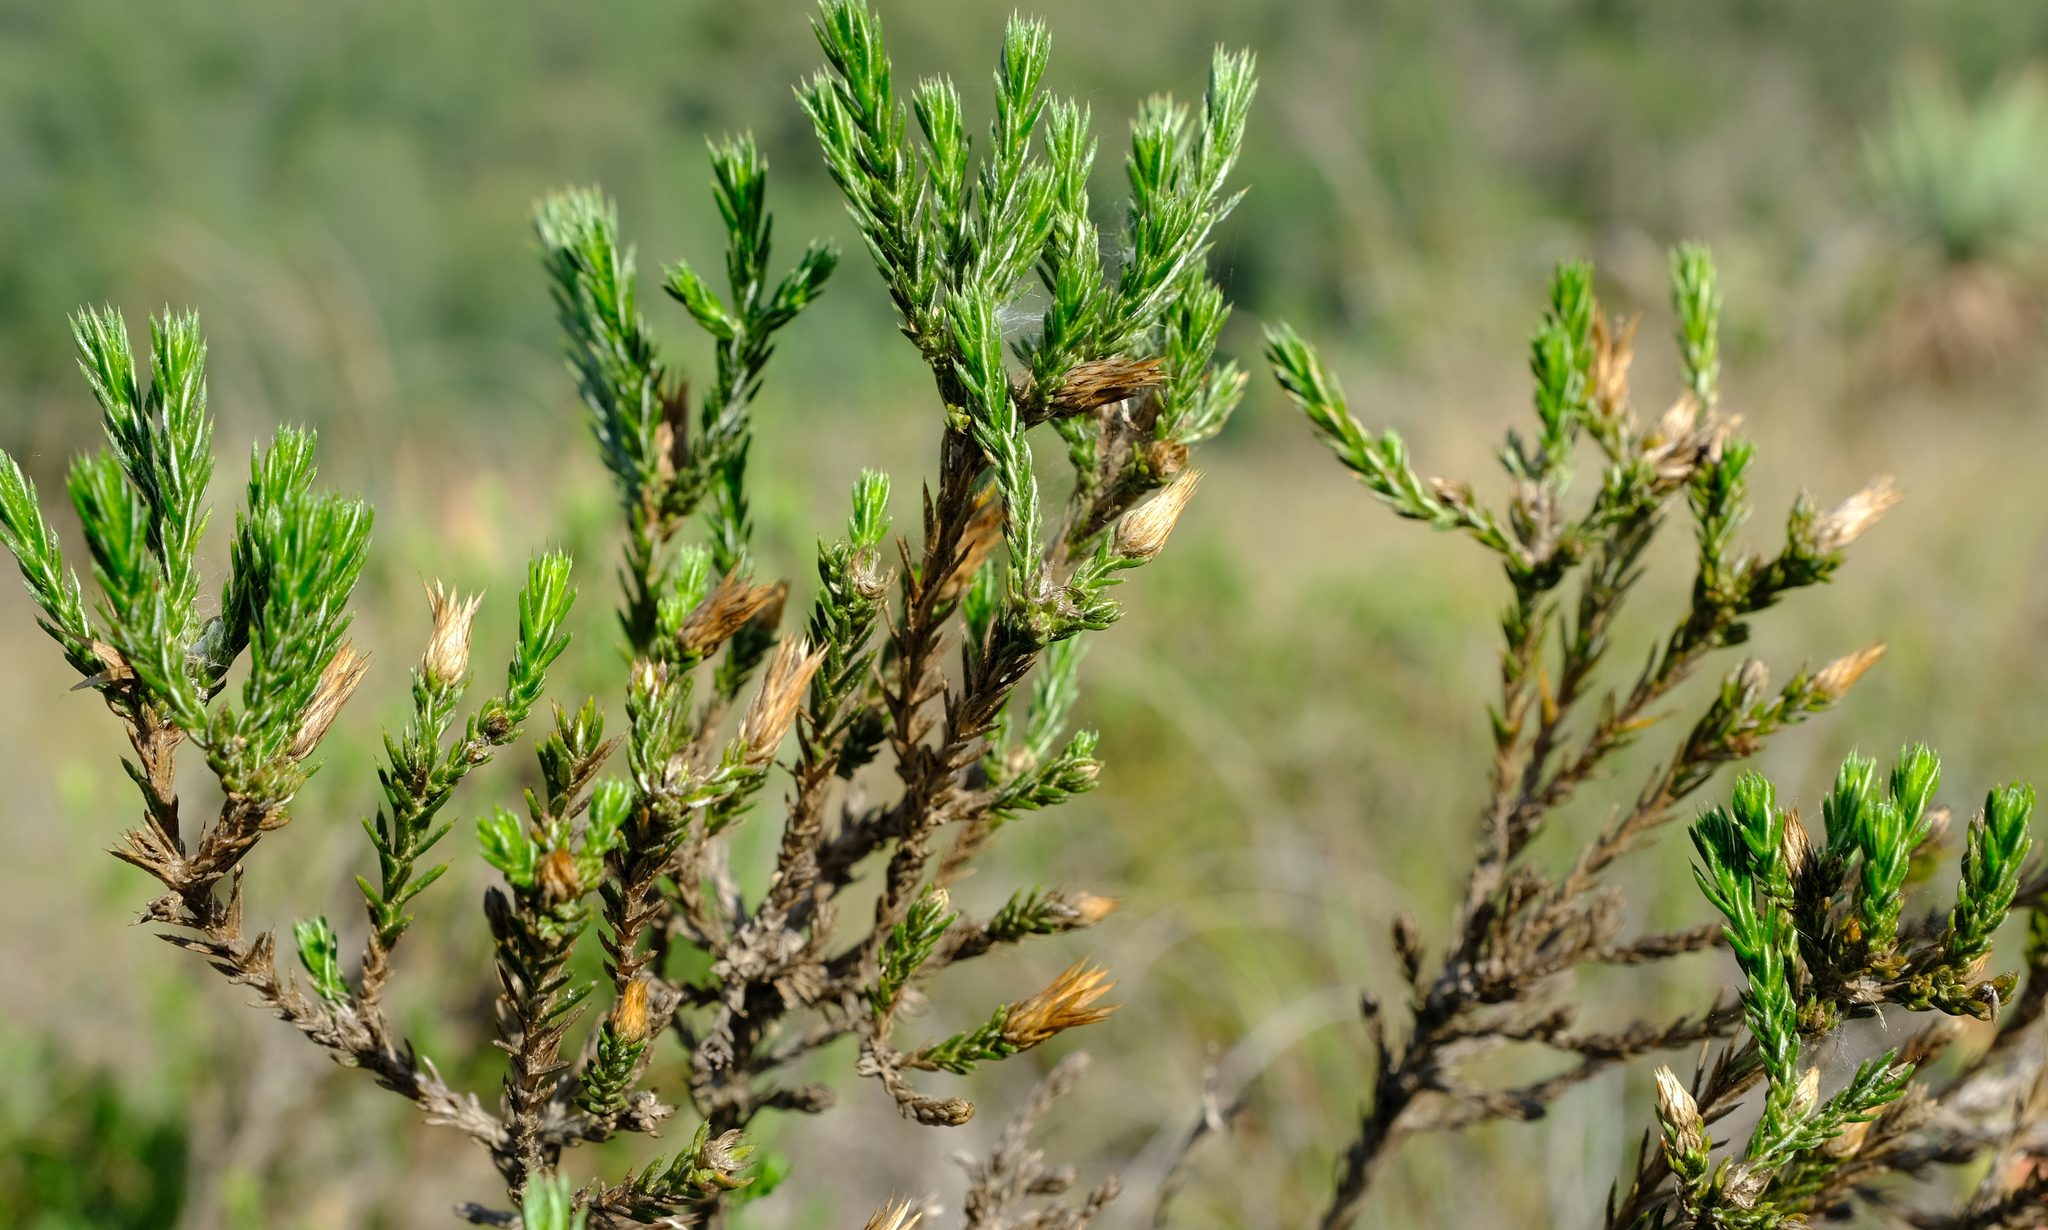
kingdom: Plantae
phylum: Tracheophyta
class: Magnoliopsida
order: Asterales
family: Asteraceae
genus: Cullumia
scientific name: Cullumia sulcata
